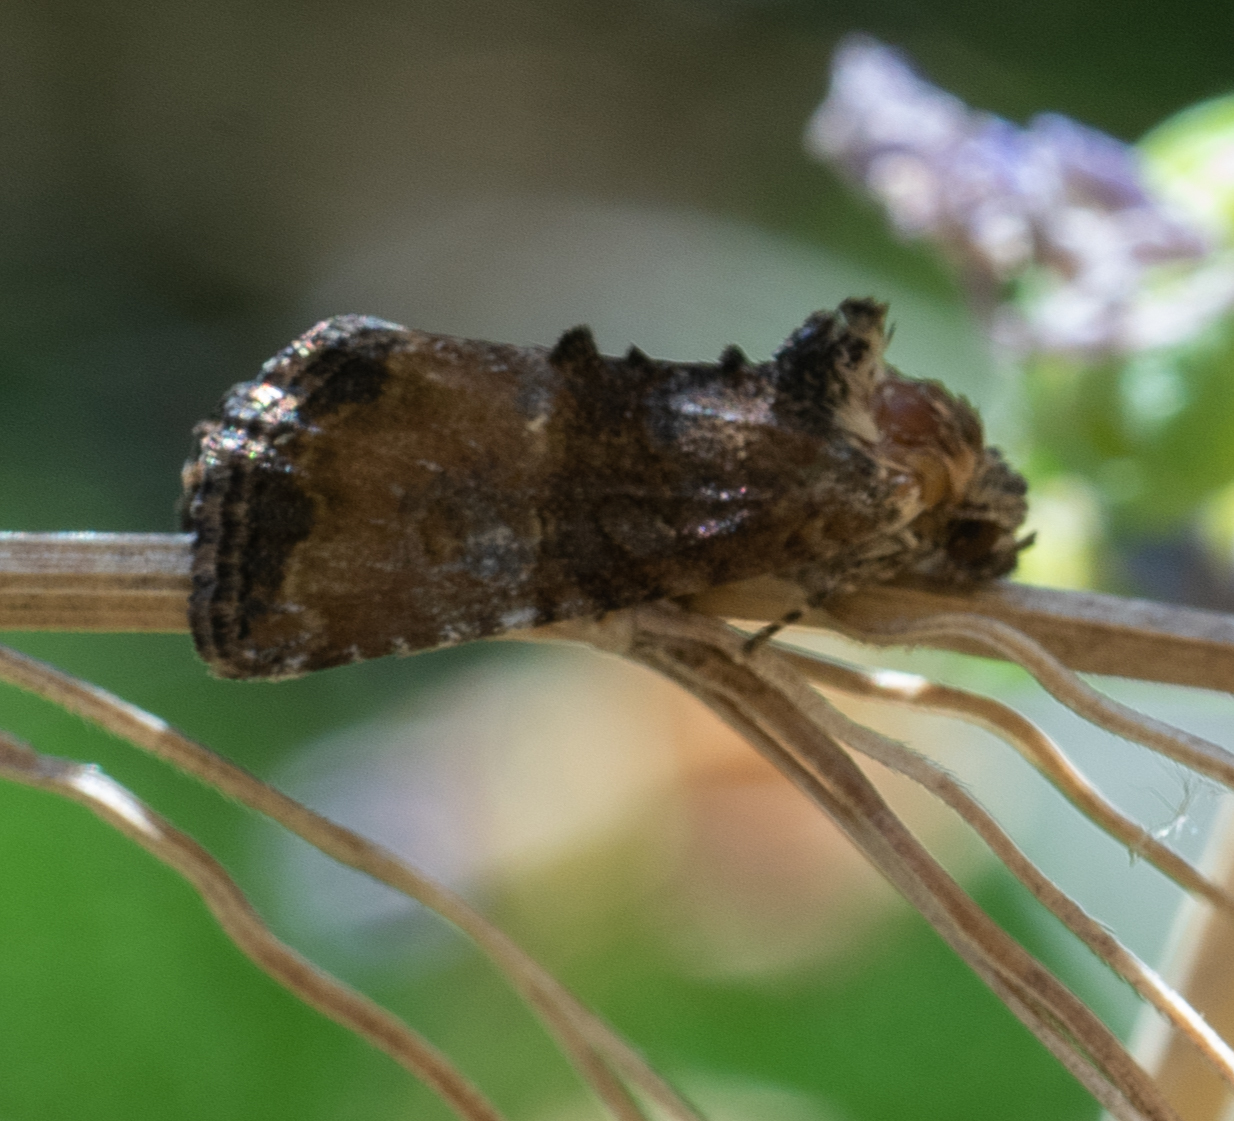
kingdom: Animalia
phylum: Arthropoda
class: Insecta
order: Lepidoptera
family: Noctuidae
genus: Mesoligia
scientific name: Mesoligia furuncula
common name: Cloaked minor
